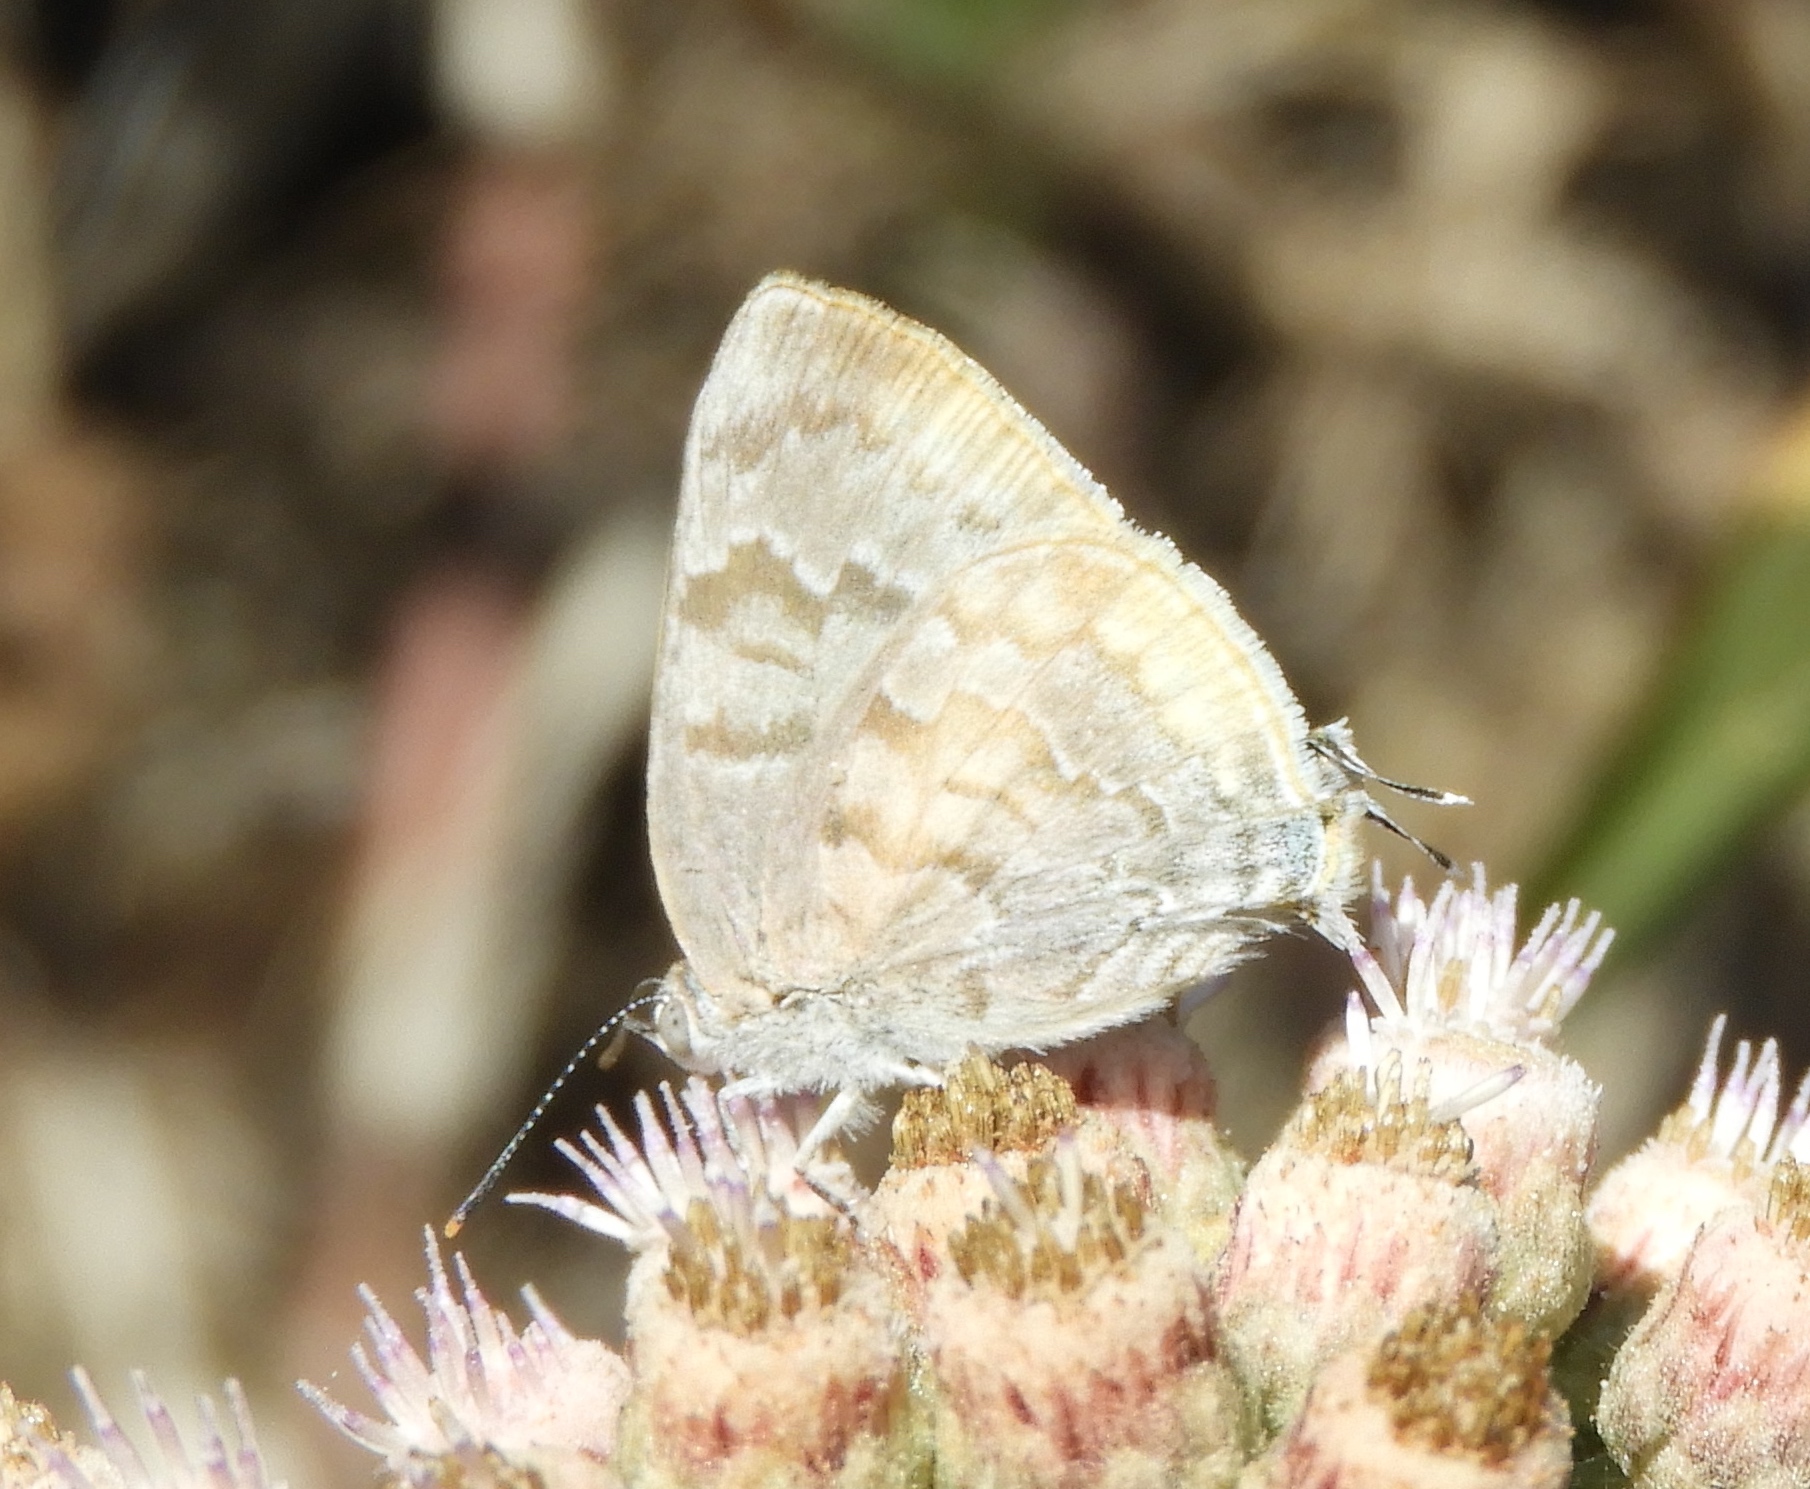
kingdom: Animalia
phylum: Arthropoda
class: Insecta
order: Lepidoptera
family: Lycaenidae
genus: Rekoa
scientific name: Rekoa palegon
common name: Gold-bordered hairstreak
